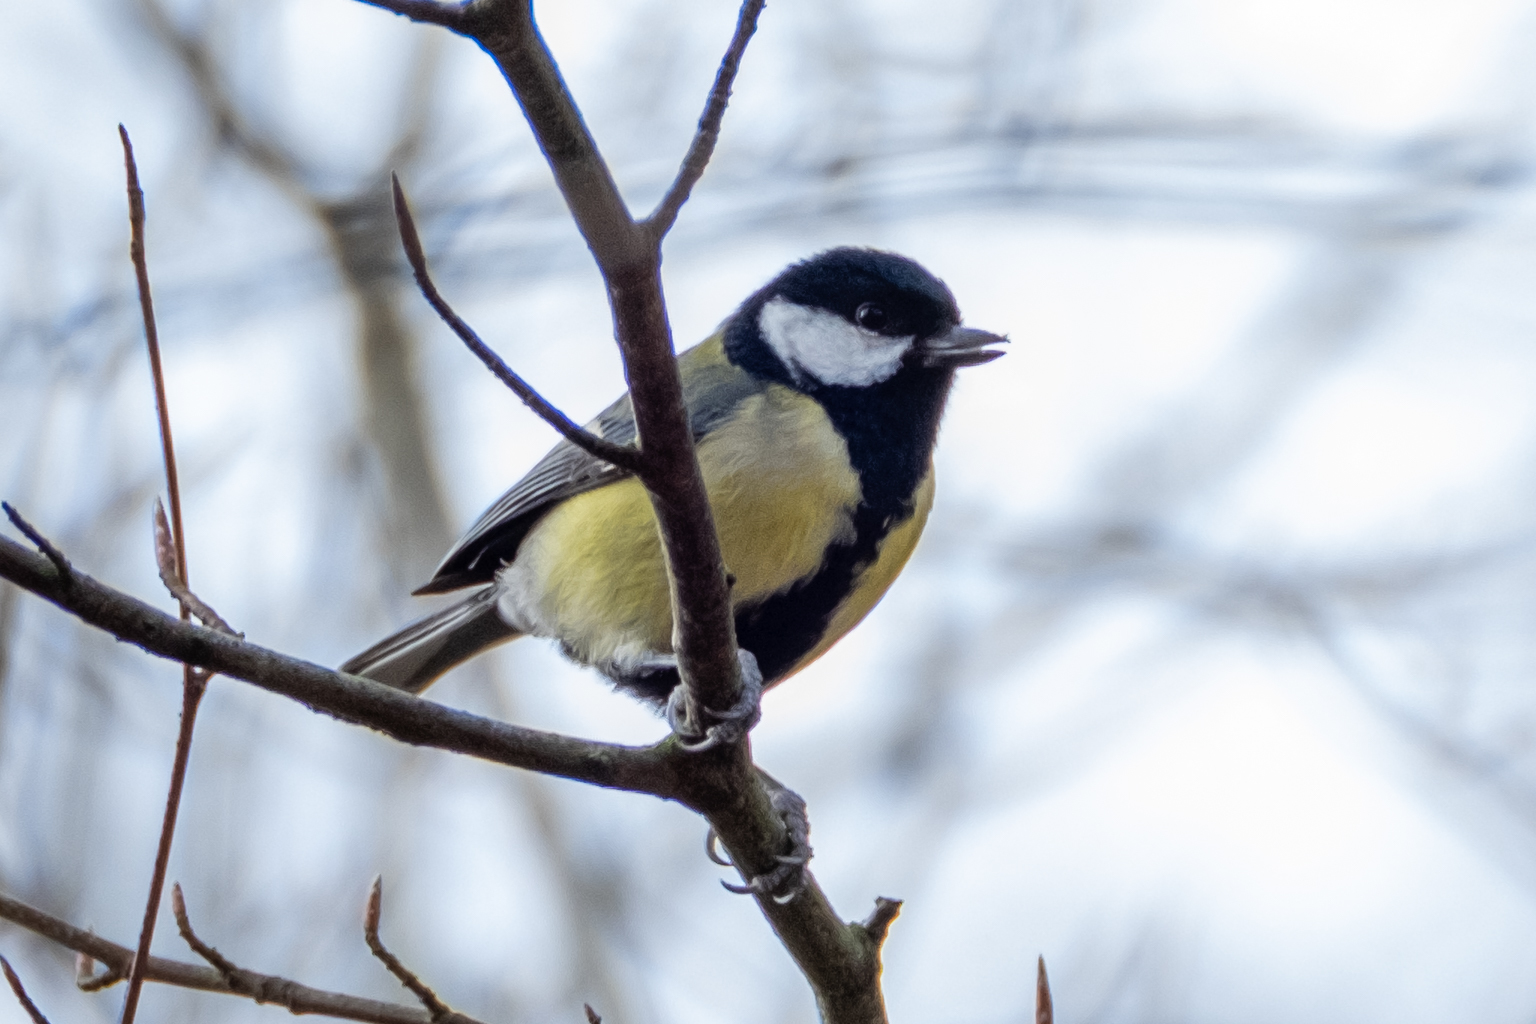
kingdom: Animalia
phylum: Chordata
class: Aves
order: Passeriformes
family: Paridae
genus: Parus
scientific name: Parus major
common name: Great tit
